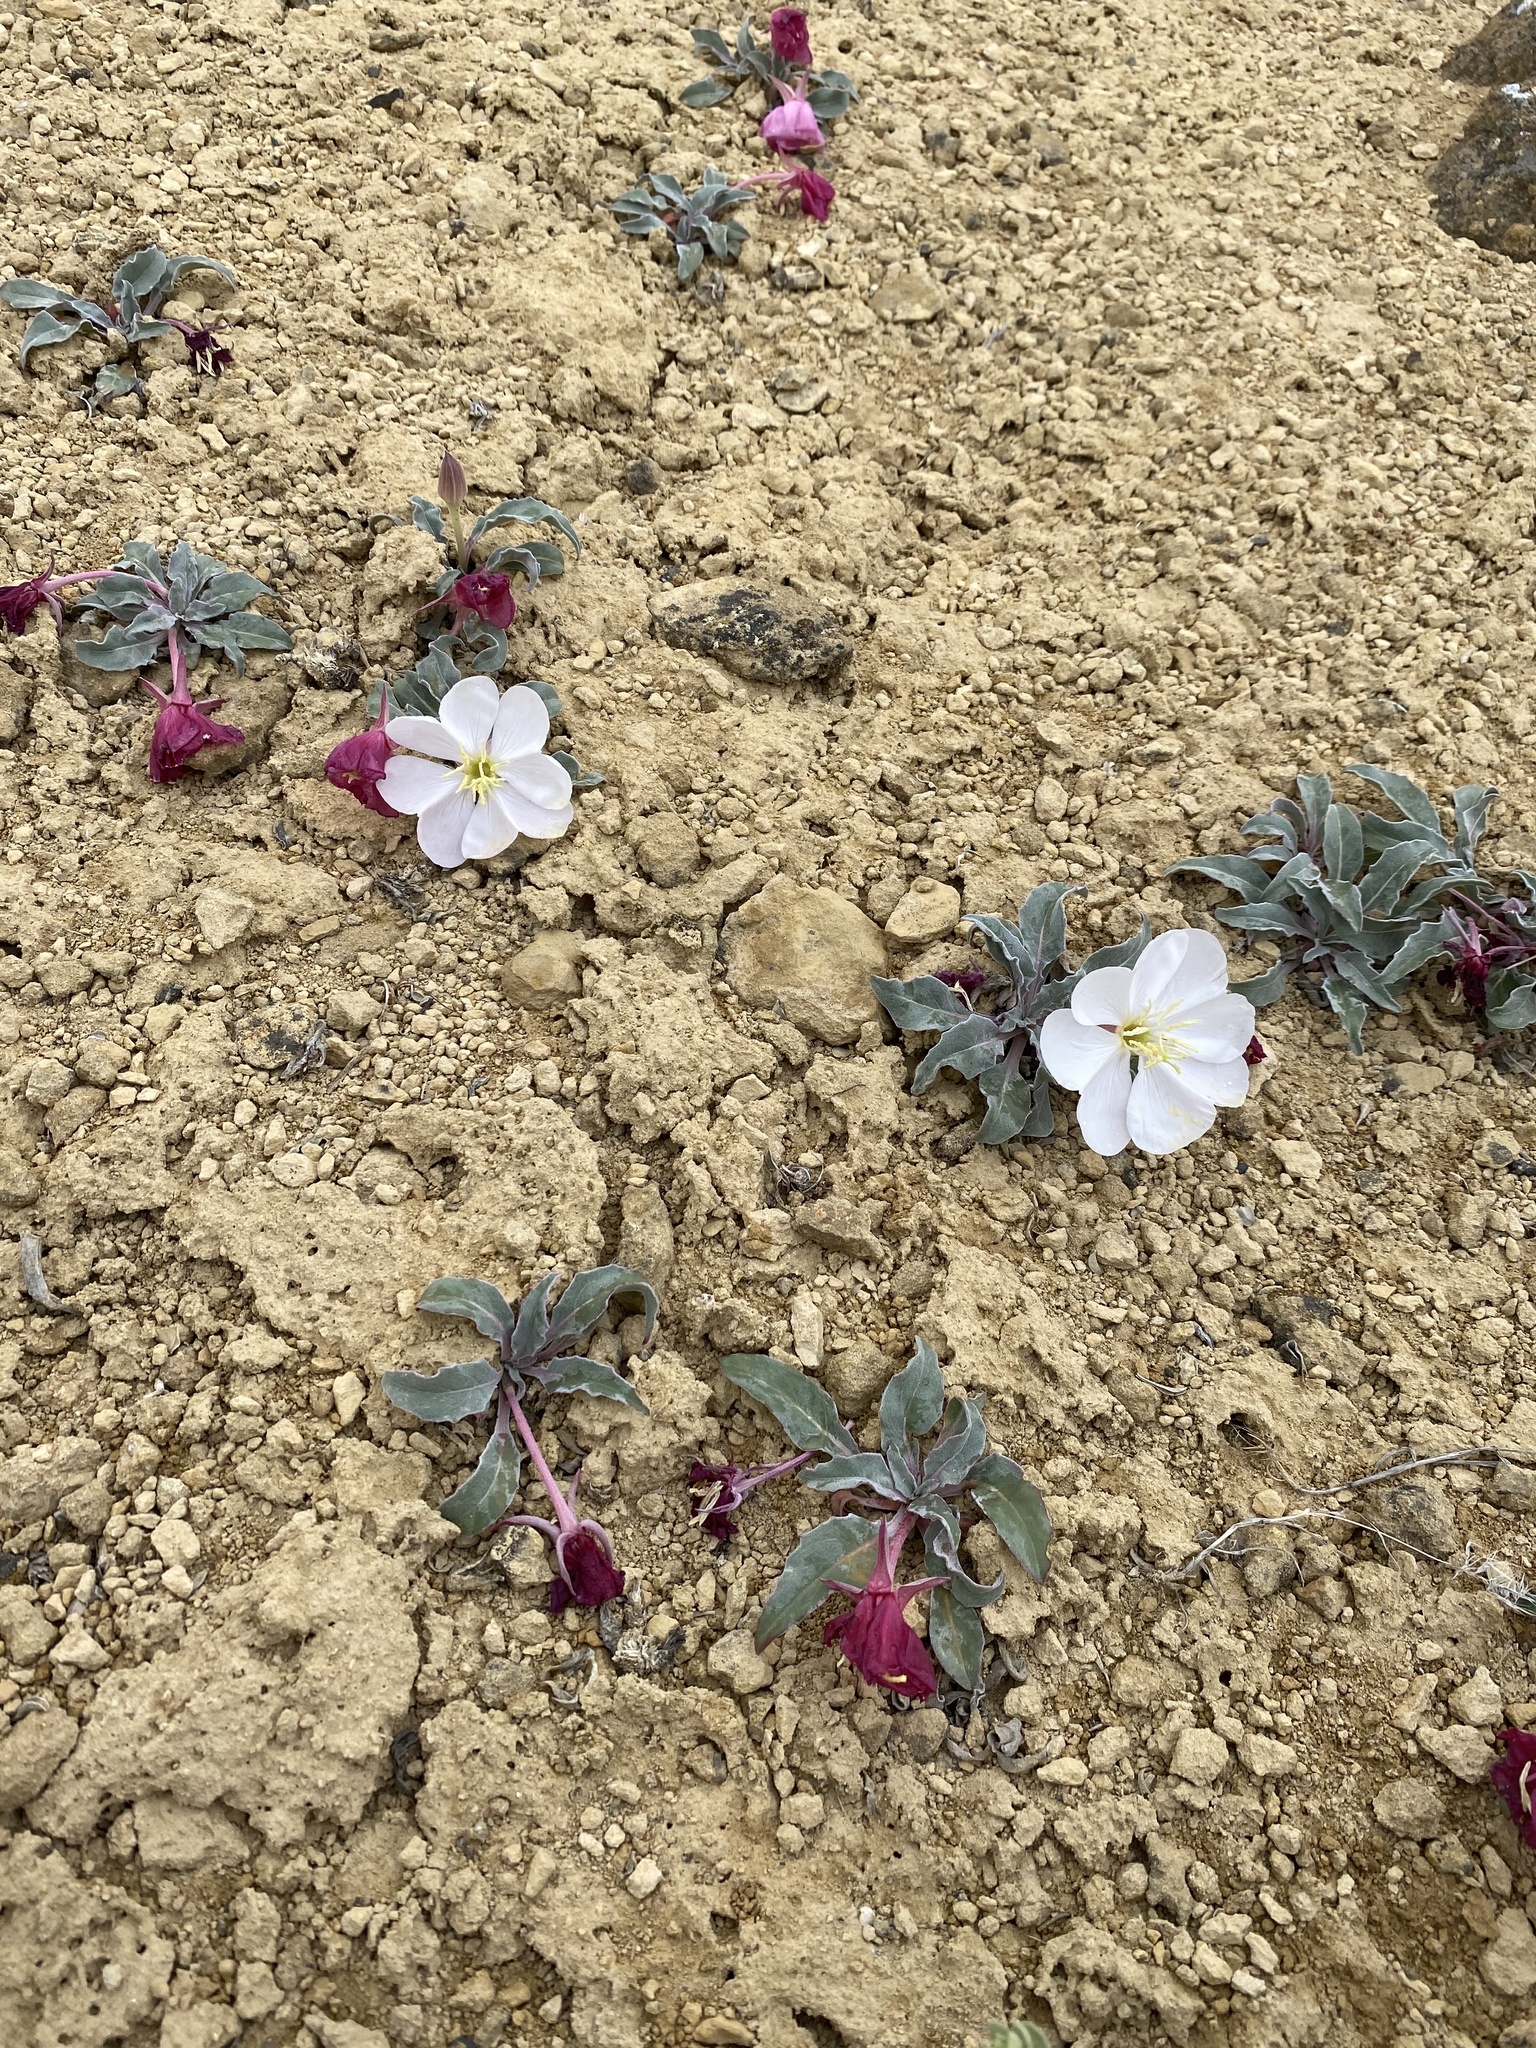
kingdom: Plantae
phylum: Tracheophyta
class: Magnoliopsida
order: Myrtales
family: Onagraceae
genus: Oenothera
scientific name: Oenothera cespitosa
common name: Tufted evening-primrose
